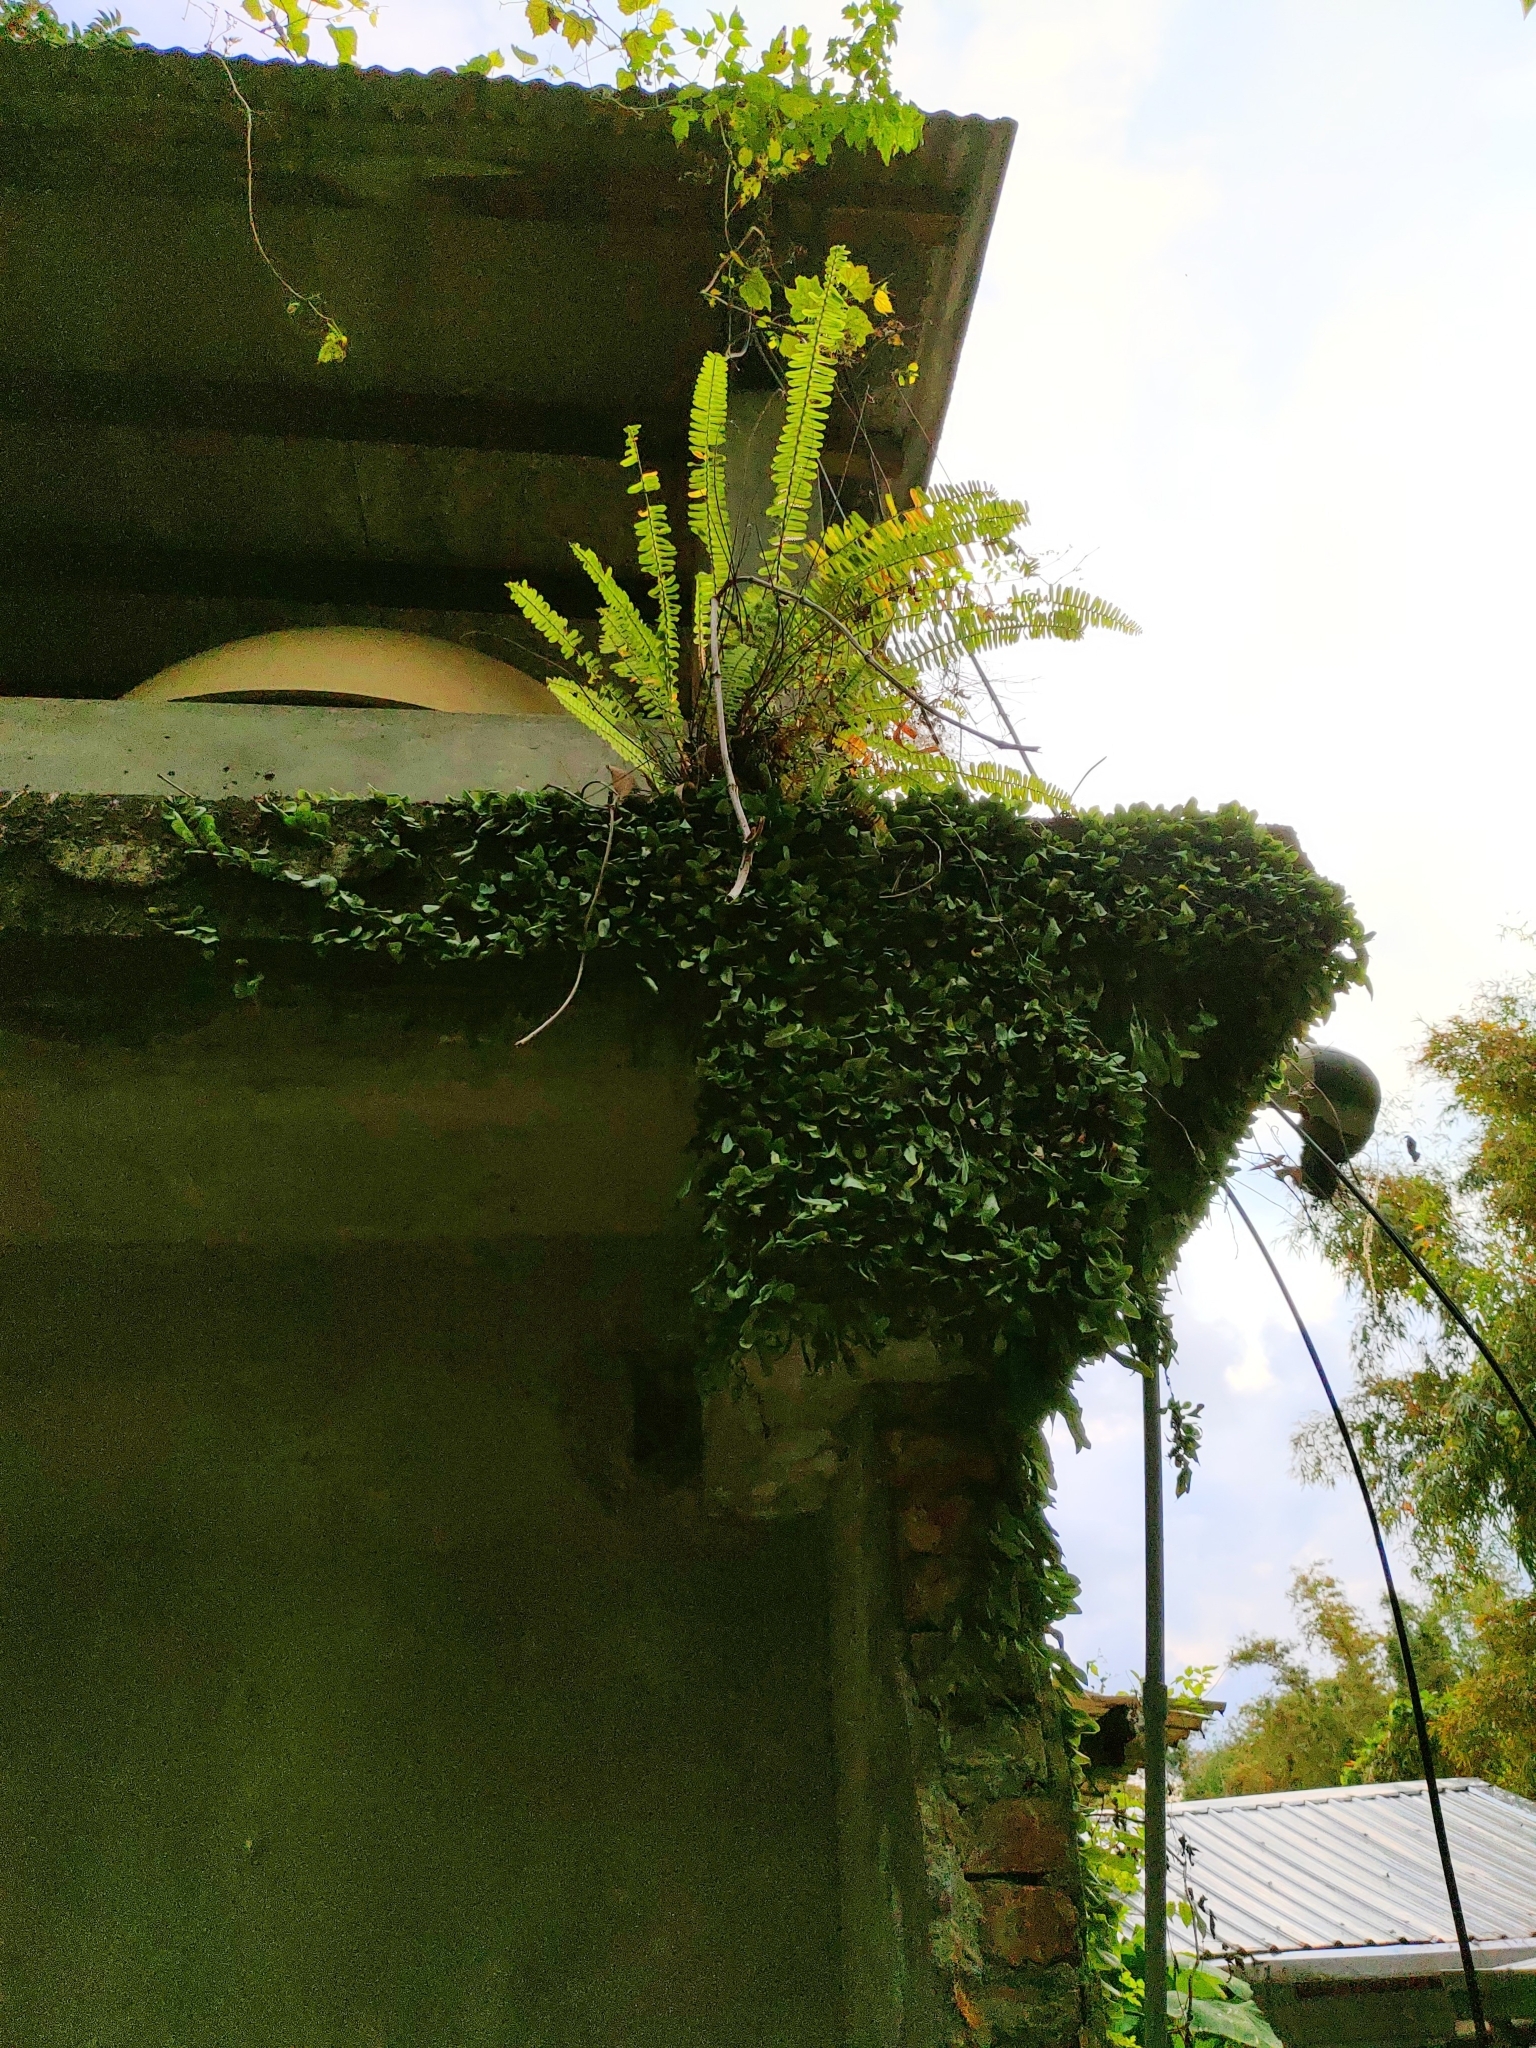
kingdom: Plantae
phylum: Tracheophyta
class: Polypodiopsida
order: Polypodiales
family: Polypodiaceae
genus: Lepisorus
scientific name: Lepisorus microphyllus
